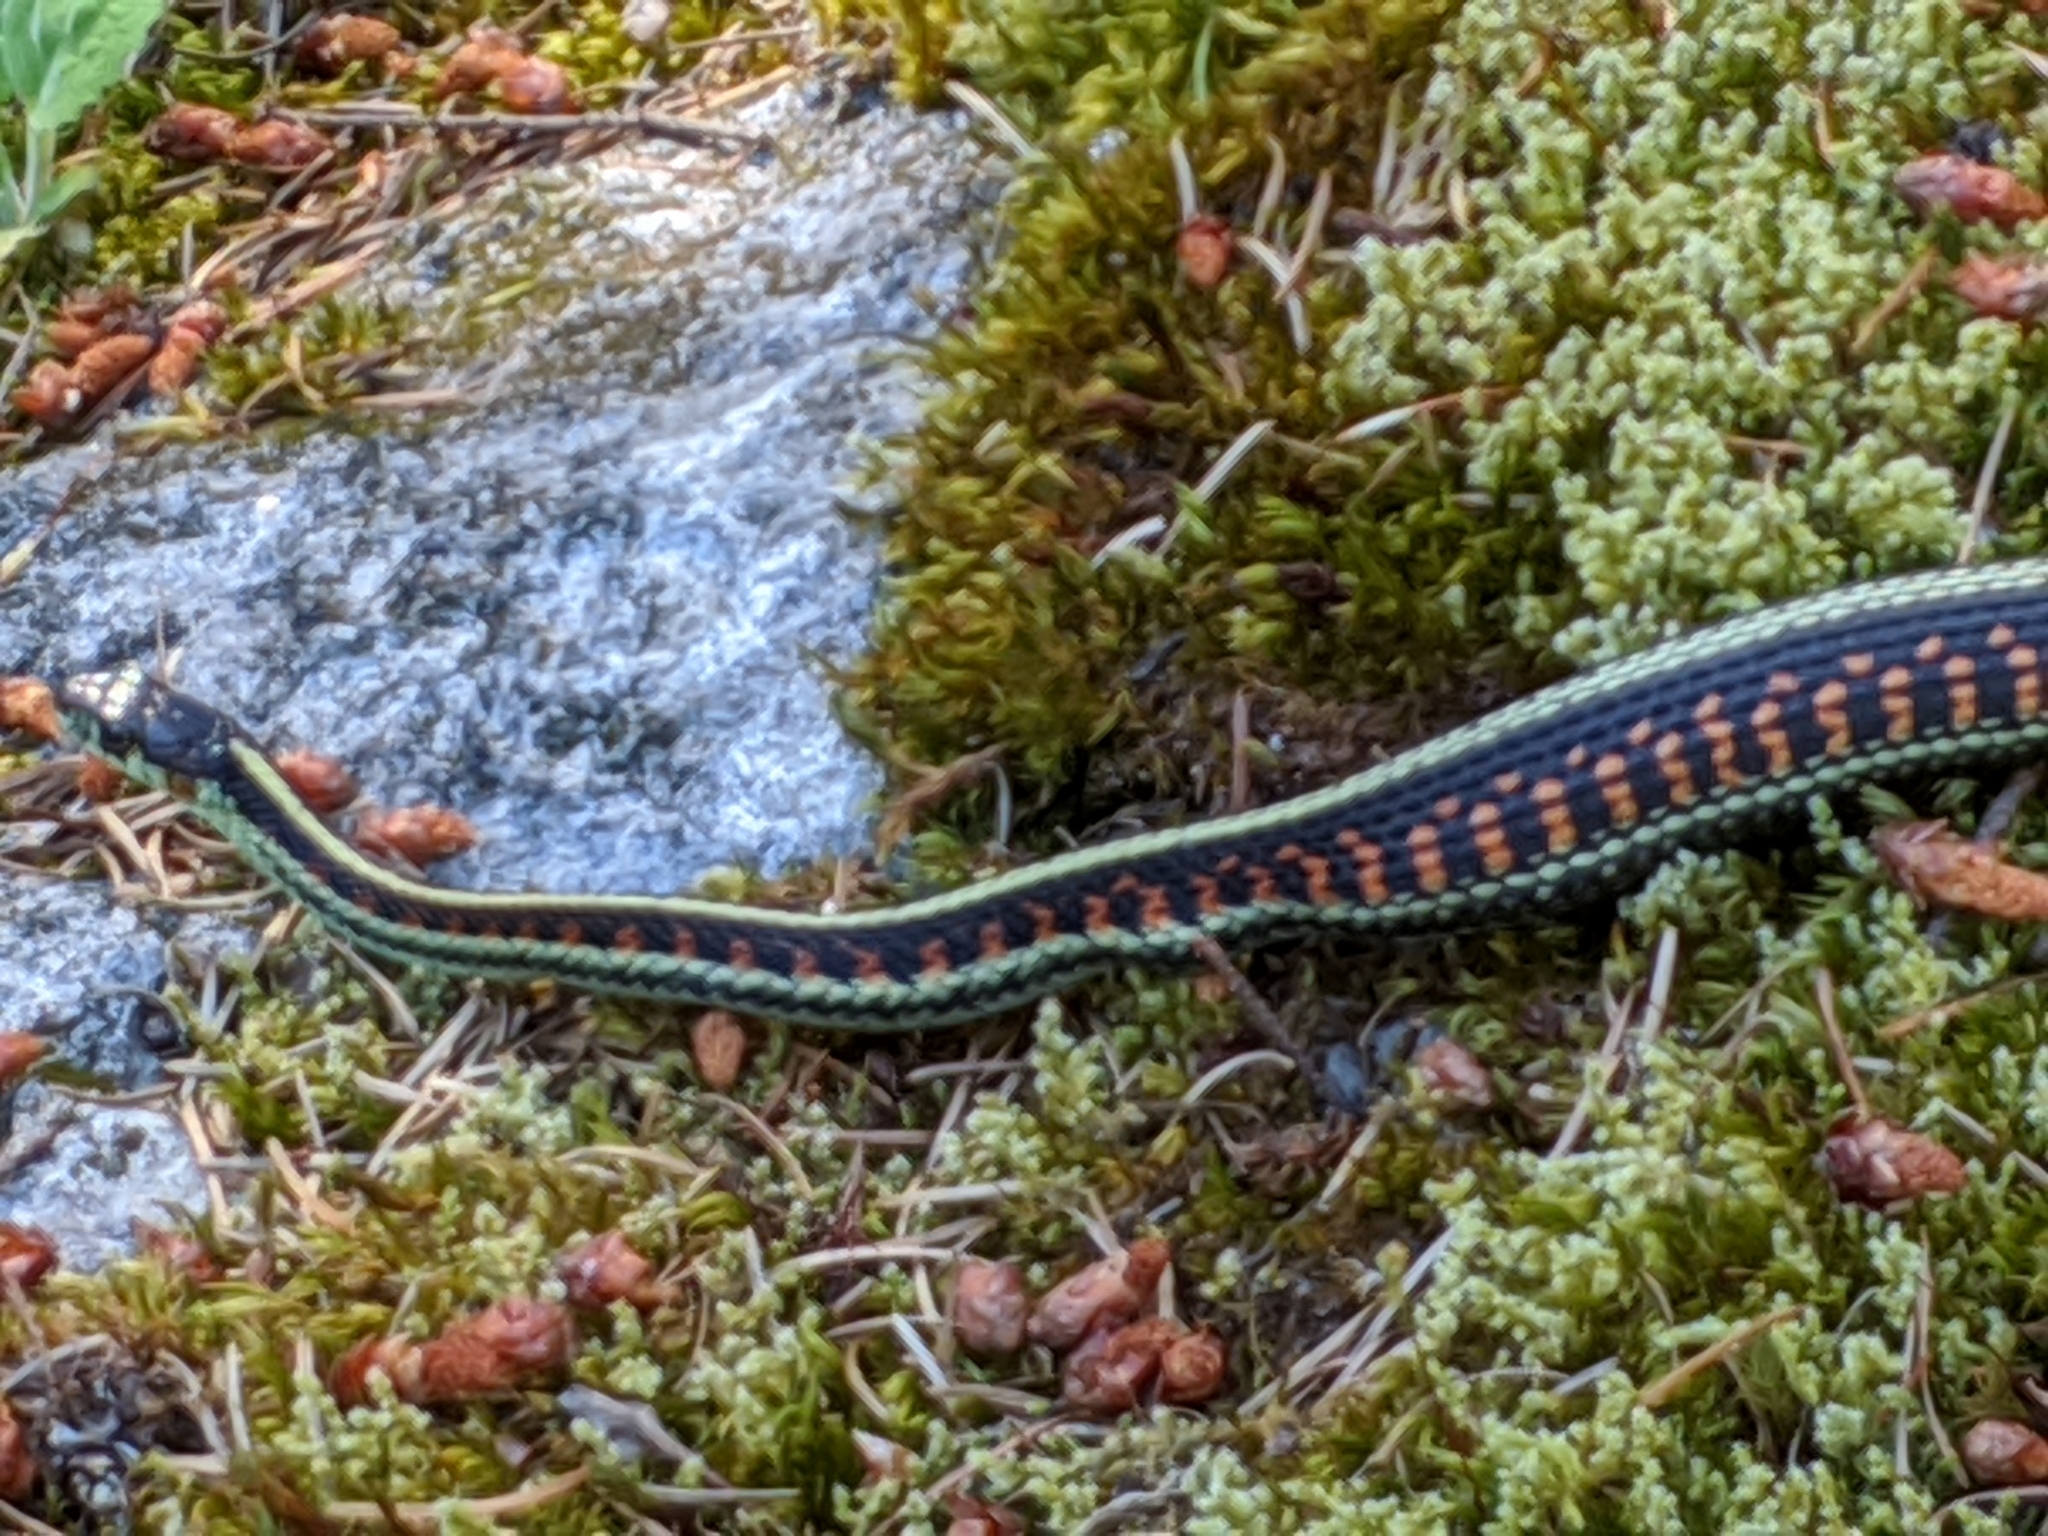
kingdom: Animalia
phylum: Chordata
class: Squamata
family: Colubridae
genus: Thamnophis
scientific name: Thamnophis sirtalis
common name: Common garter snake
